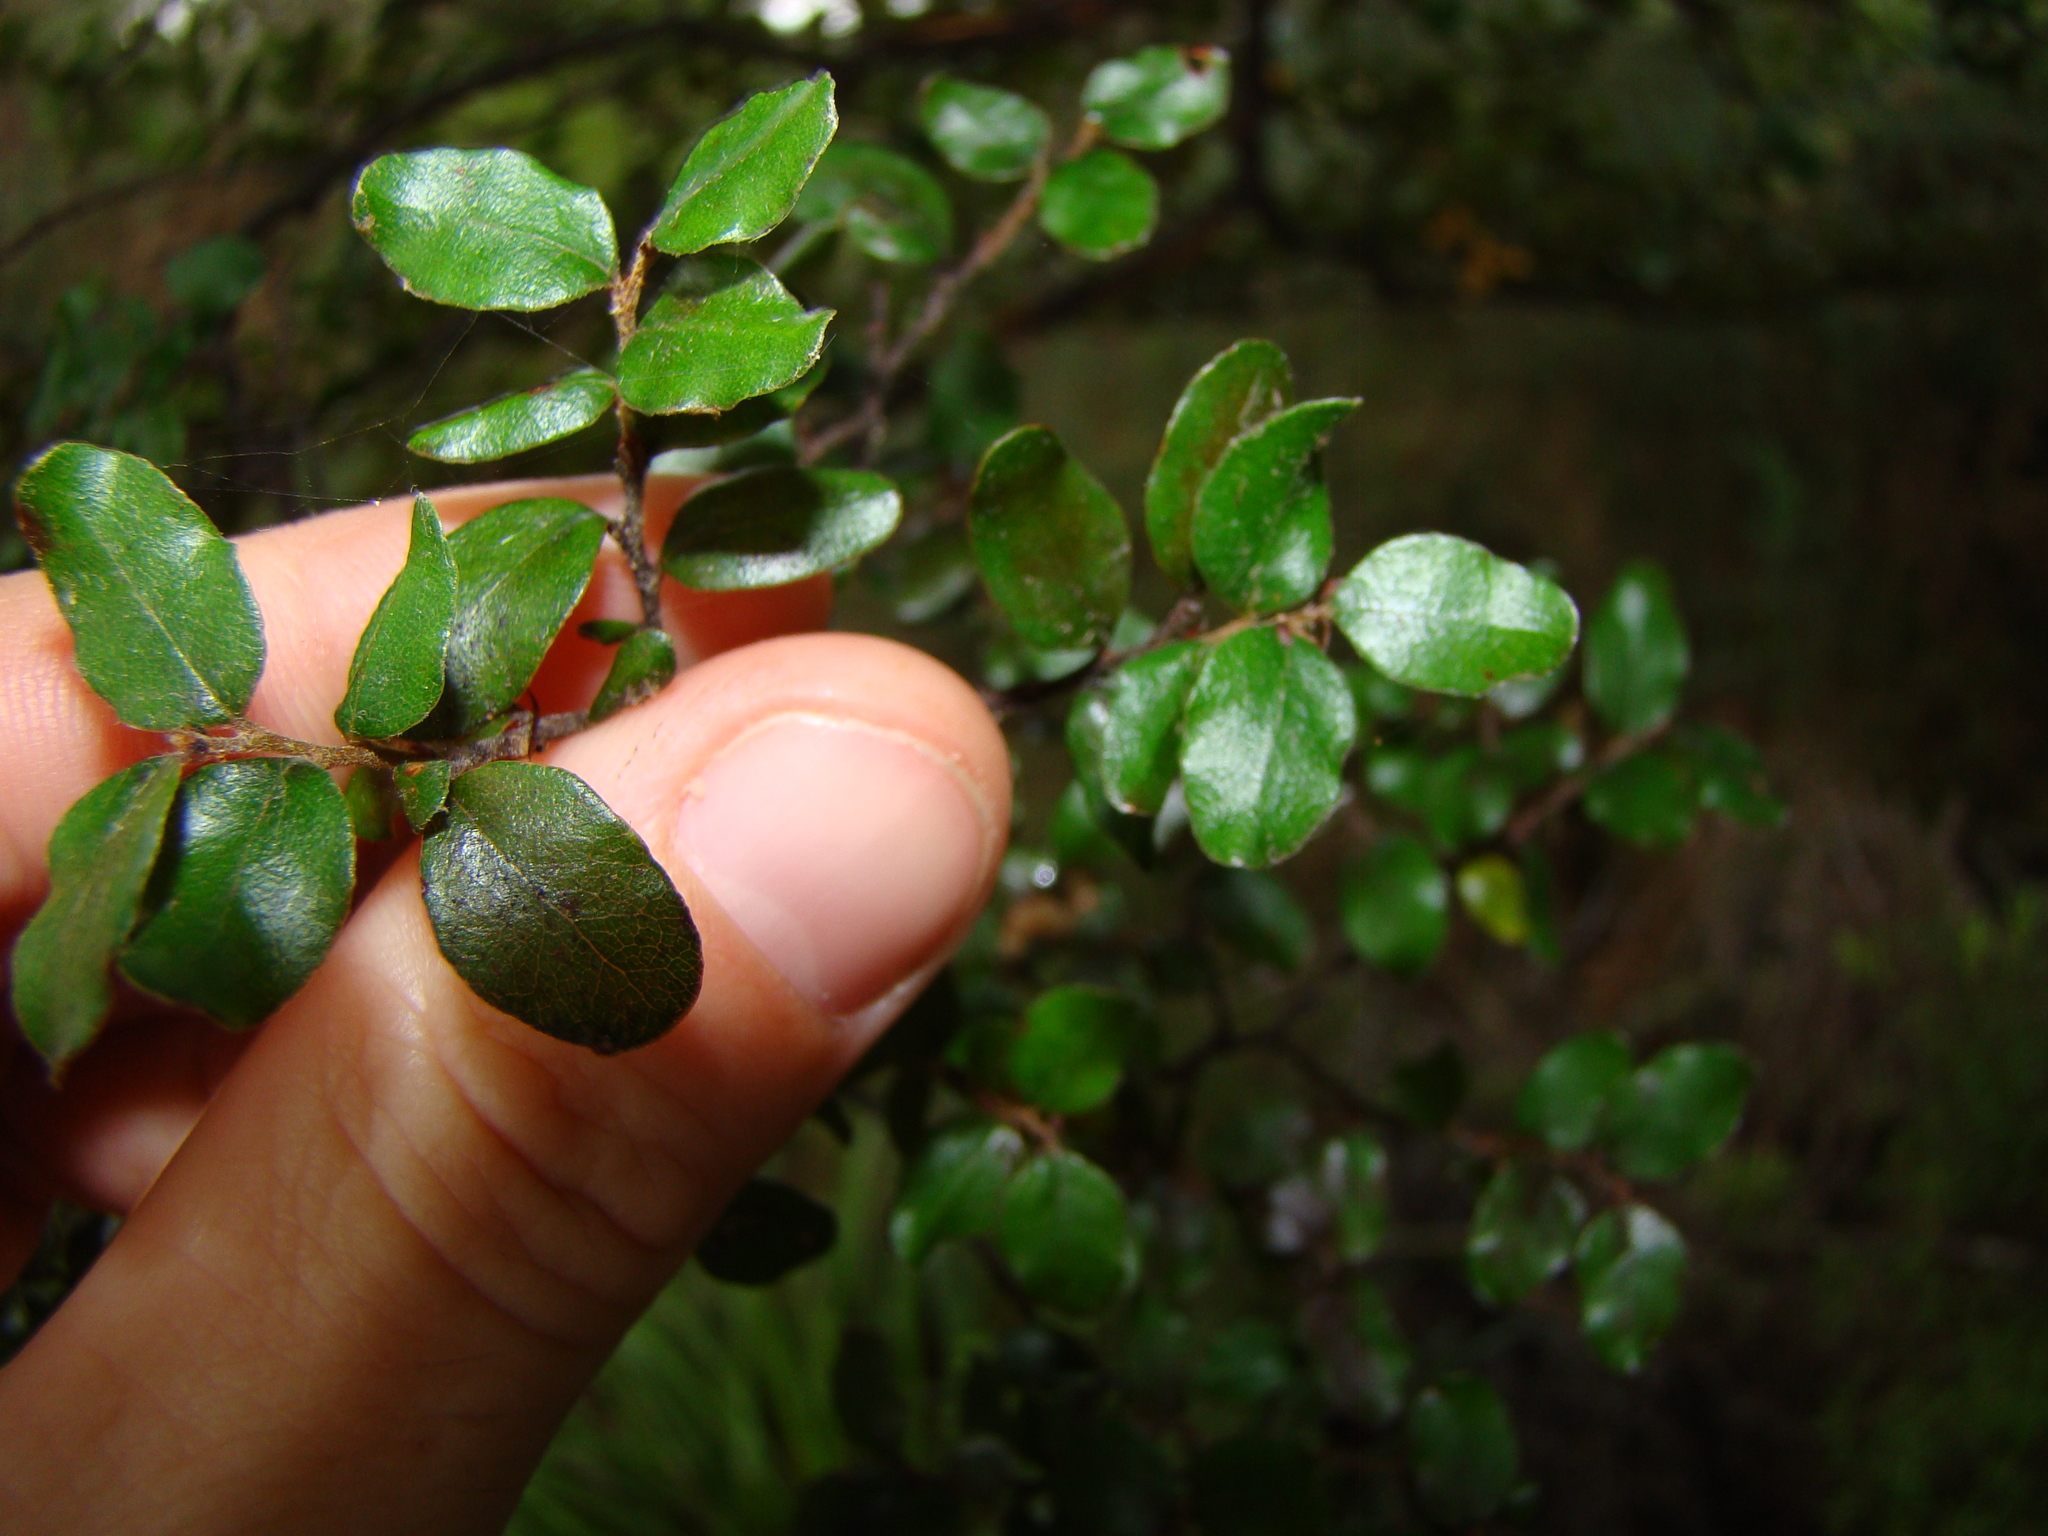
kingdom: Plantae
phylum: Tracheophyta
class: Magnoliopsida
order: Fagales
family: Nothofagaceae
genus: Nothofagus
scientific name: Nothofagus solandri
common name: Black beech
